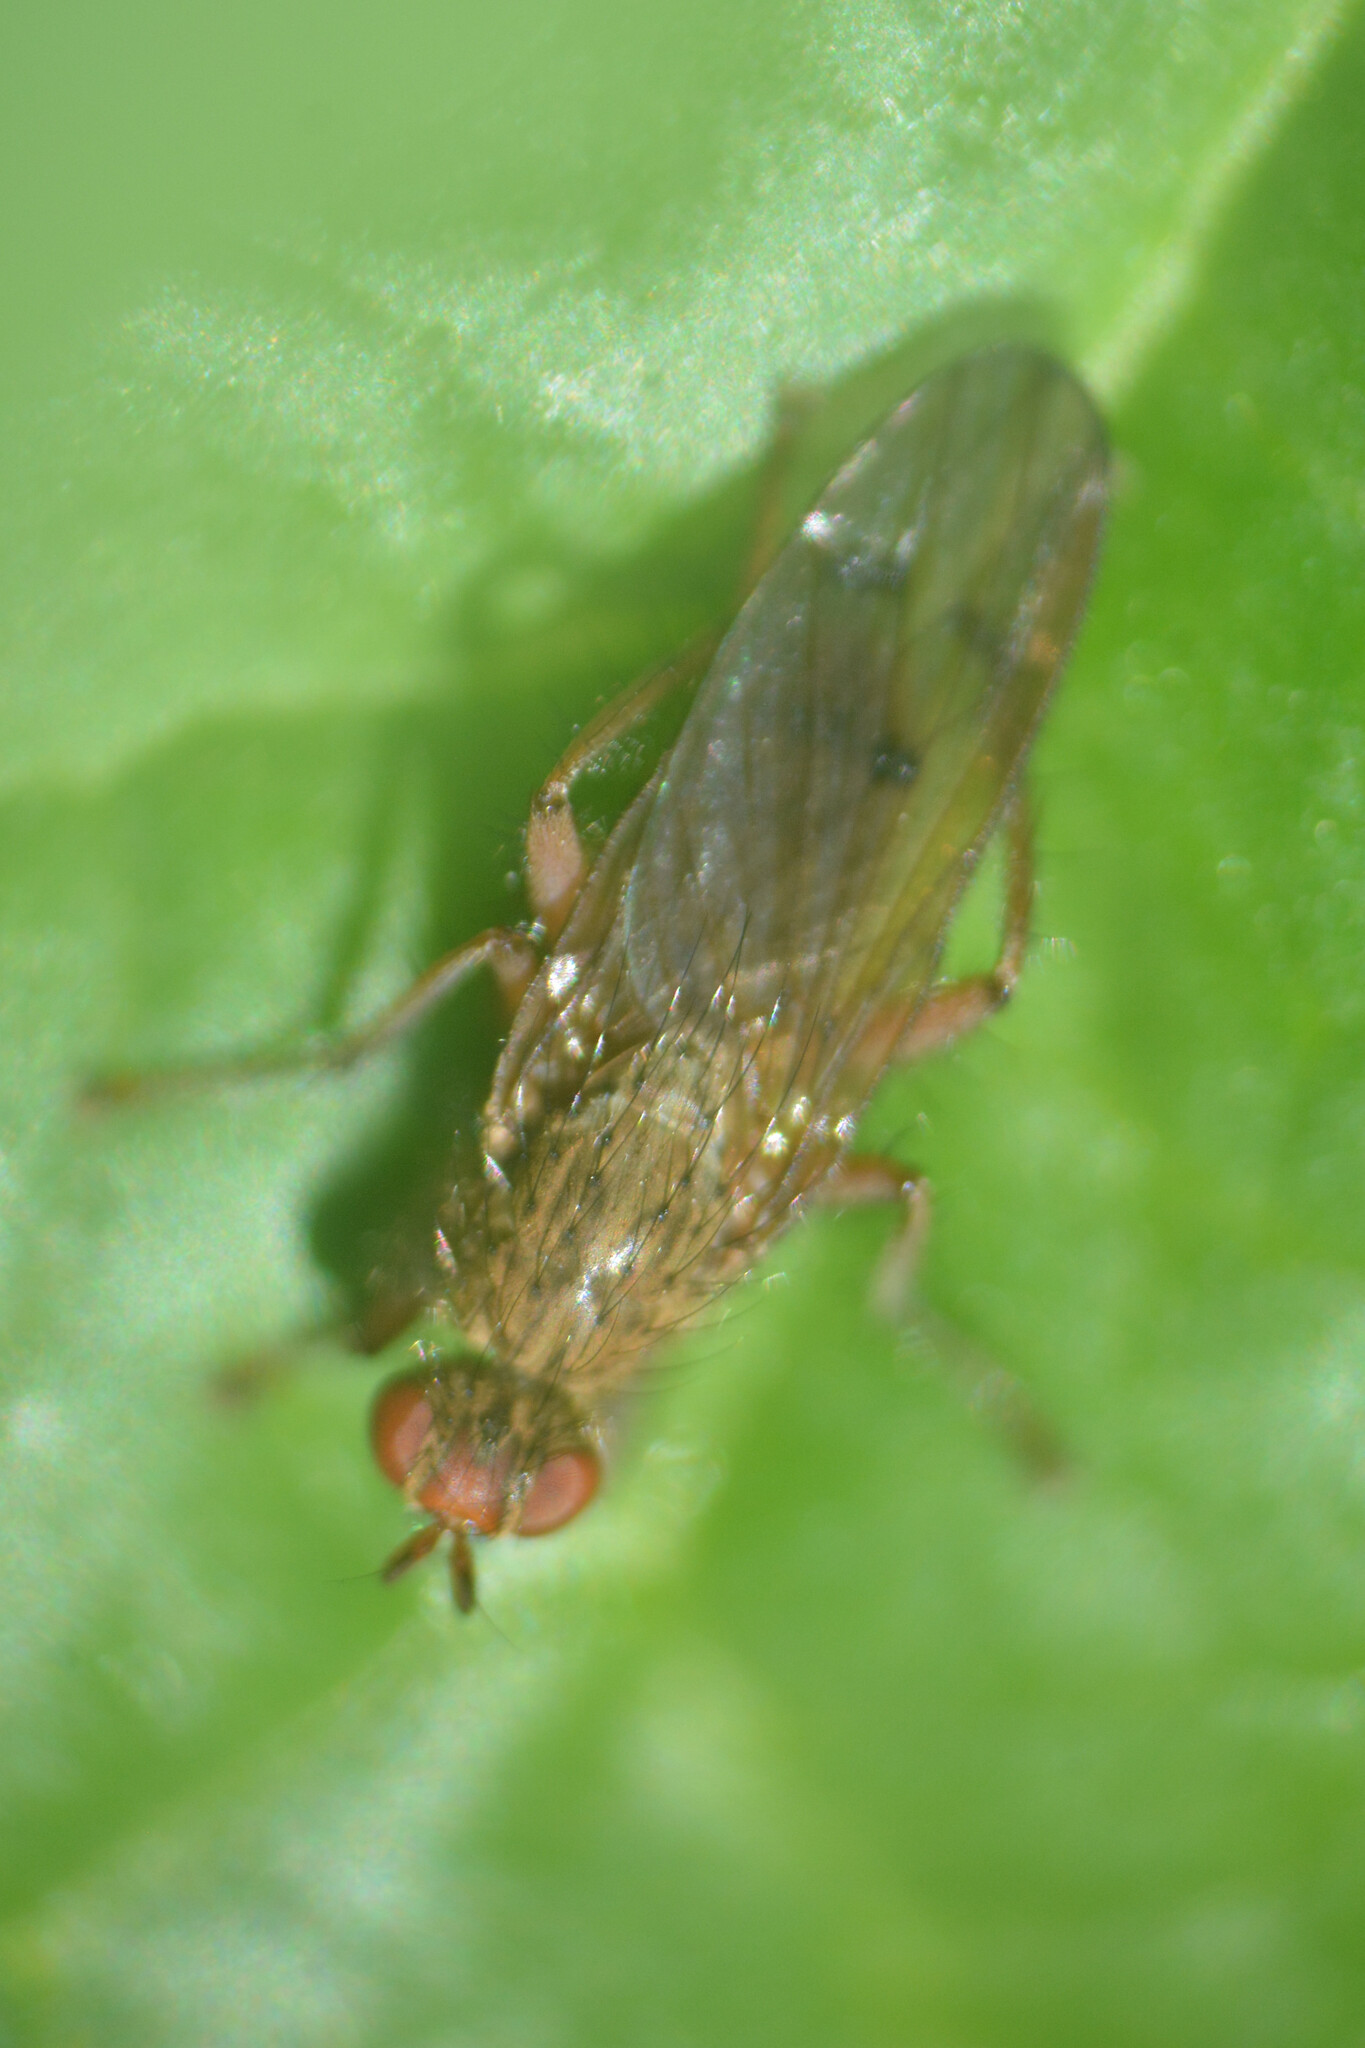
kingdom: Animalia
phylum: Arthropoda
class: Insecta
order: Diptera
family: Scathophagidae
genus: Scathophaga
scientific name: Scathophaga stercoraria
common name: Yellow dung fly
